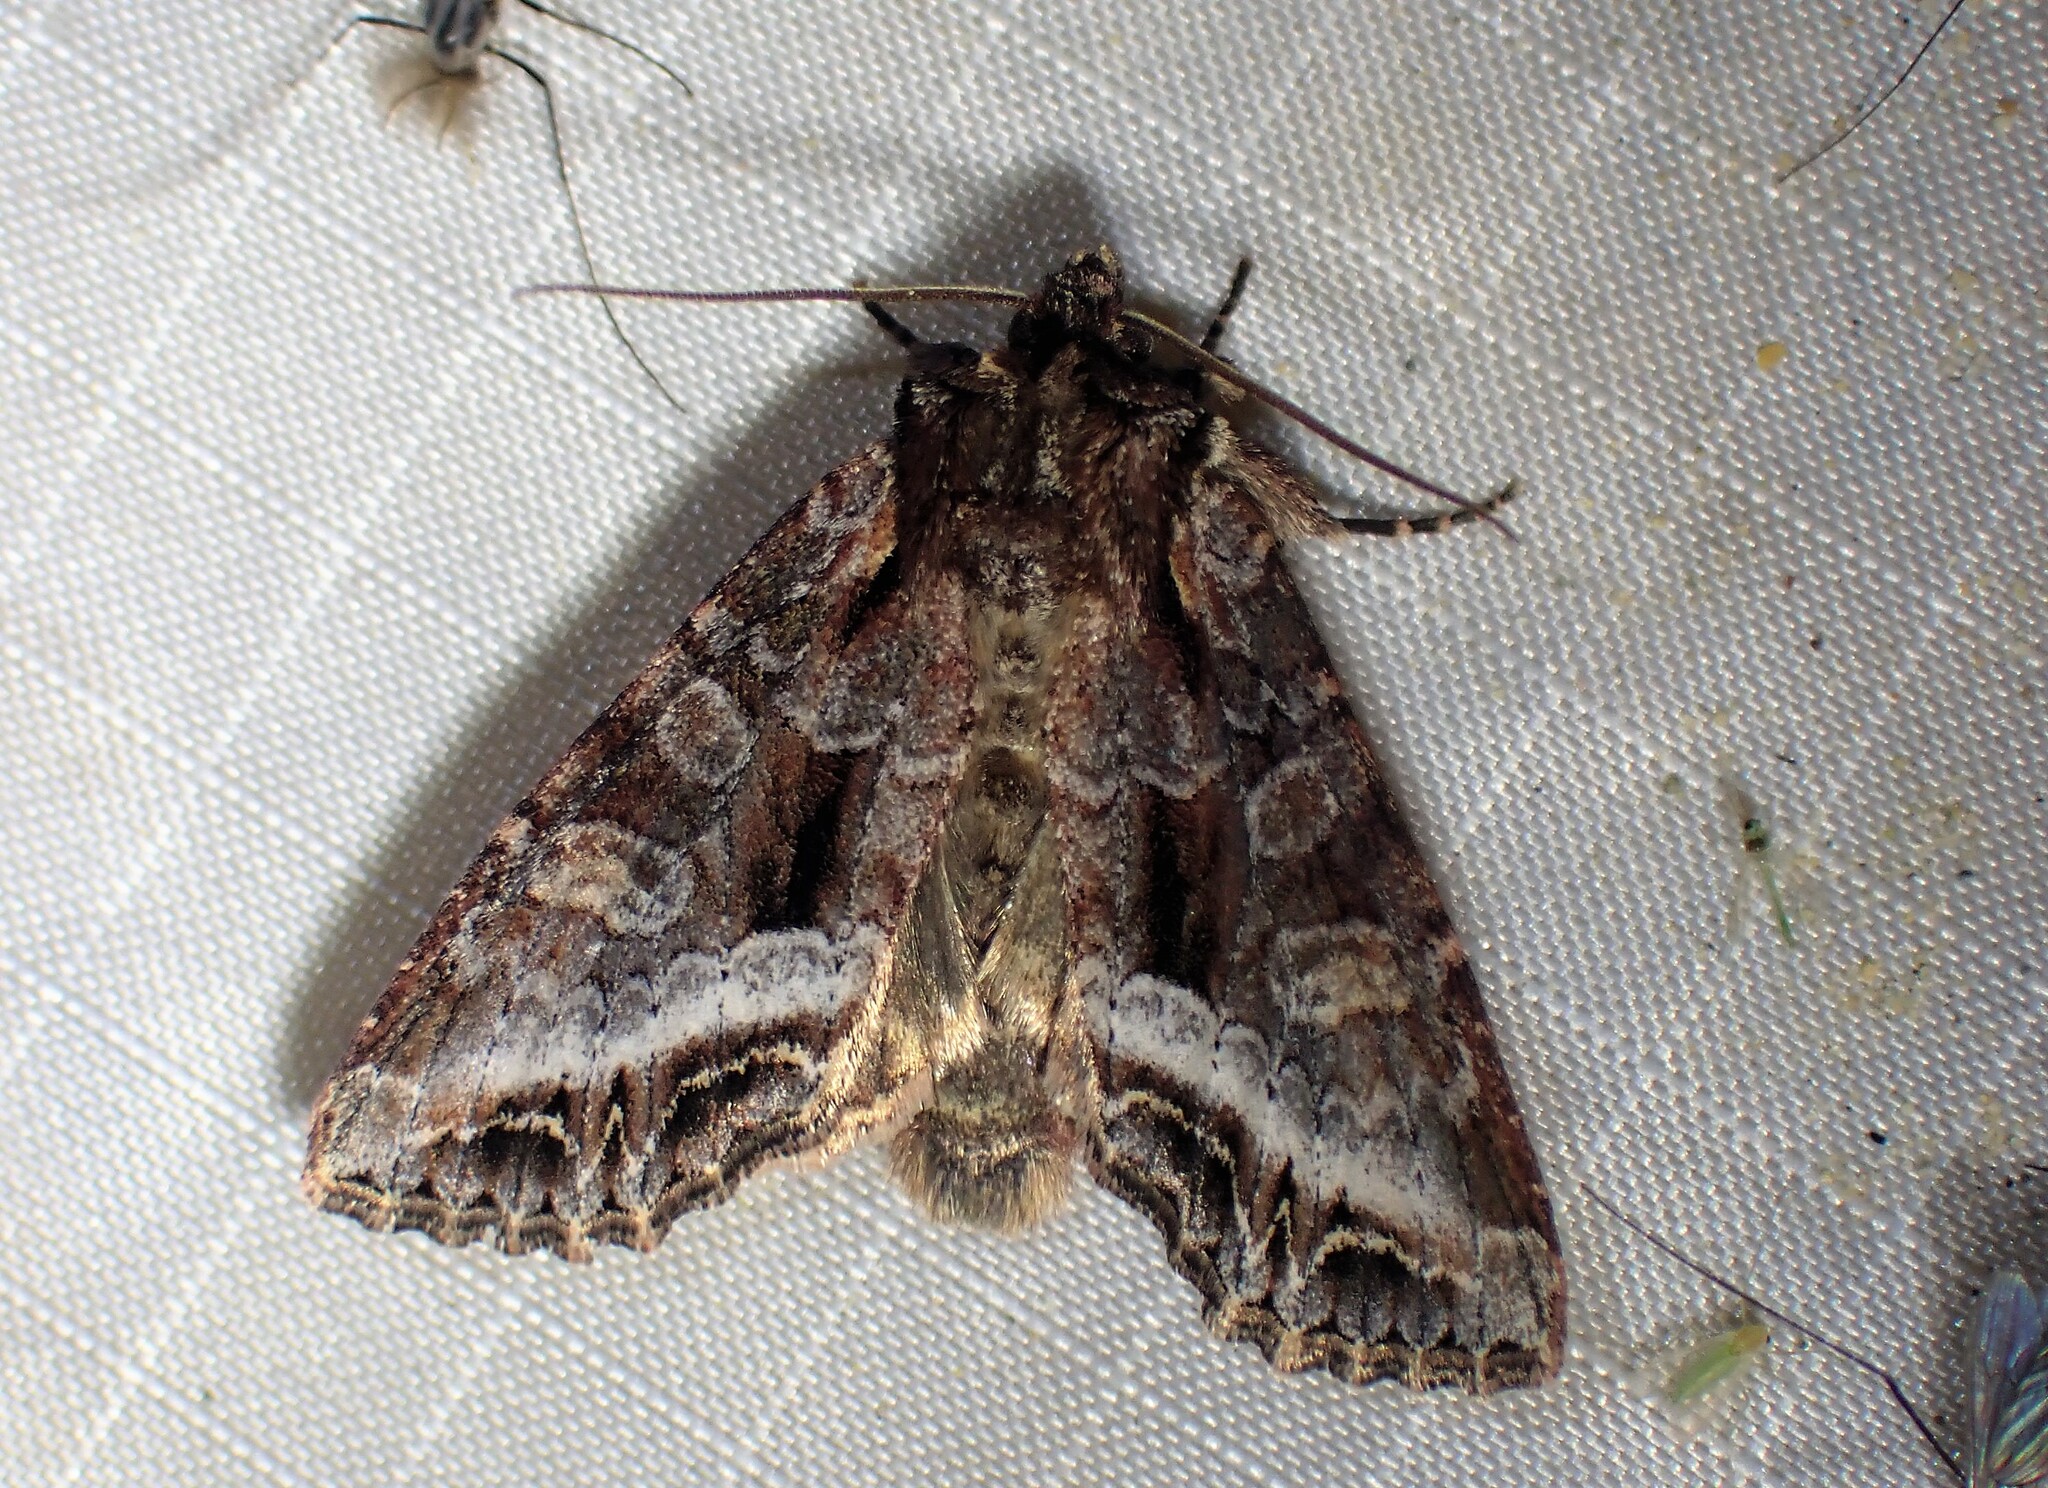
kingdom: Animalia
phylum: Arthropoda
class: Insecta
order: Lepidoptera
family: Noctuidae
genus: Lacanobia
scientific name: Lacanobia grandis
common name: Grand arches moth
